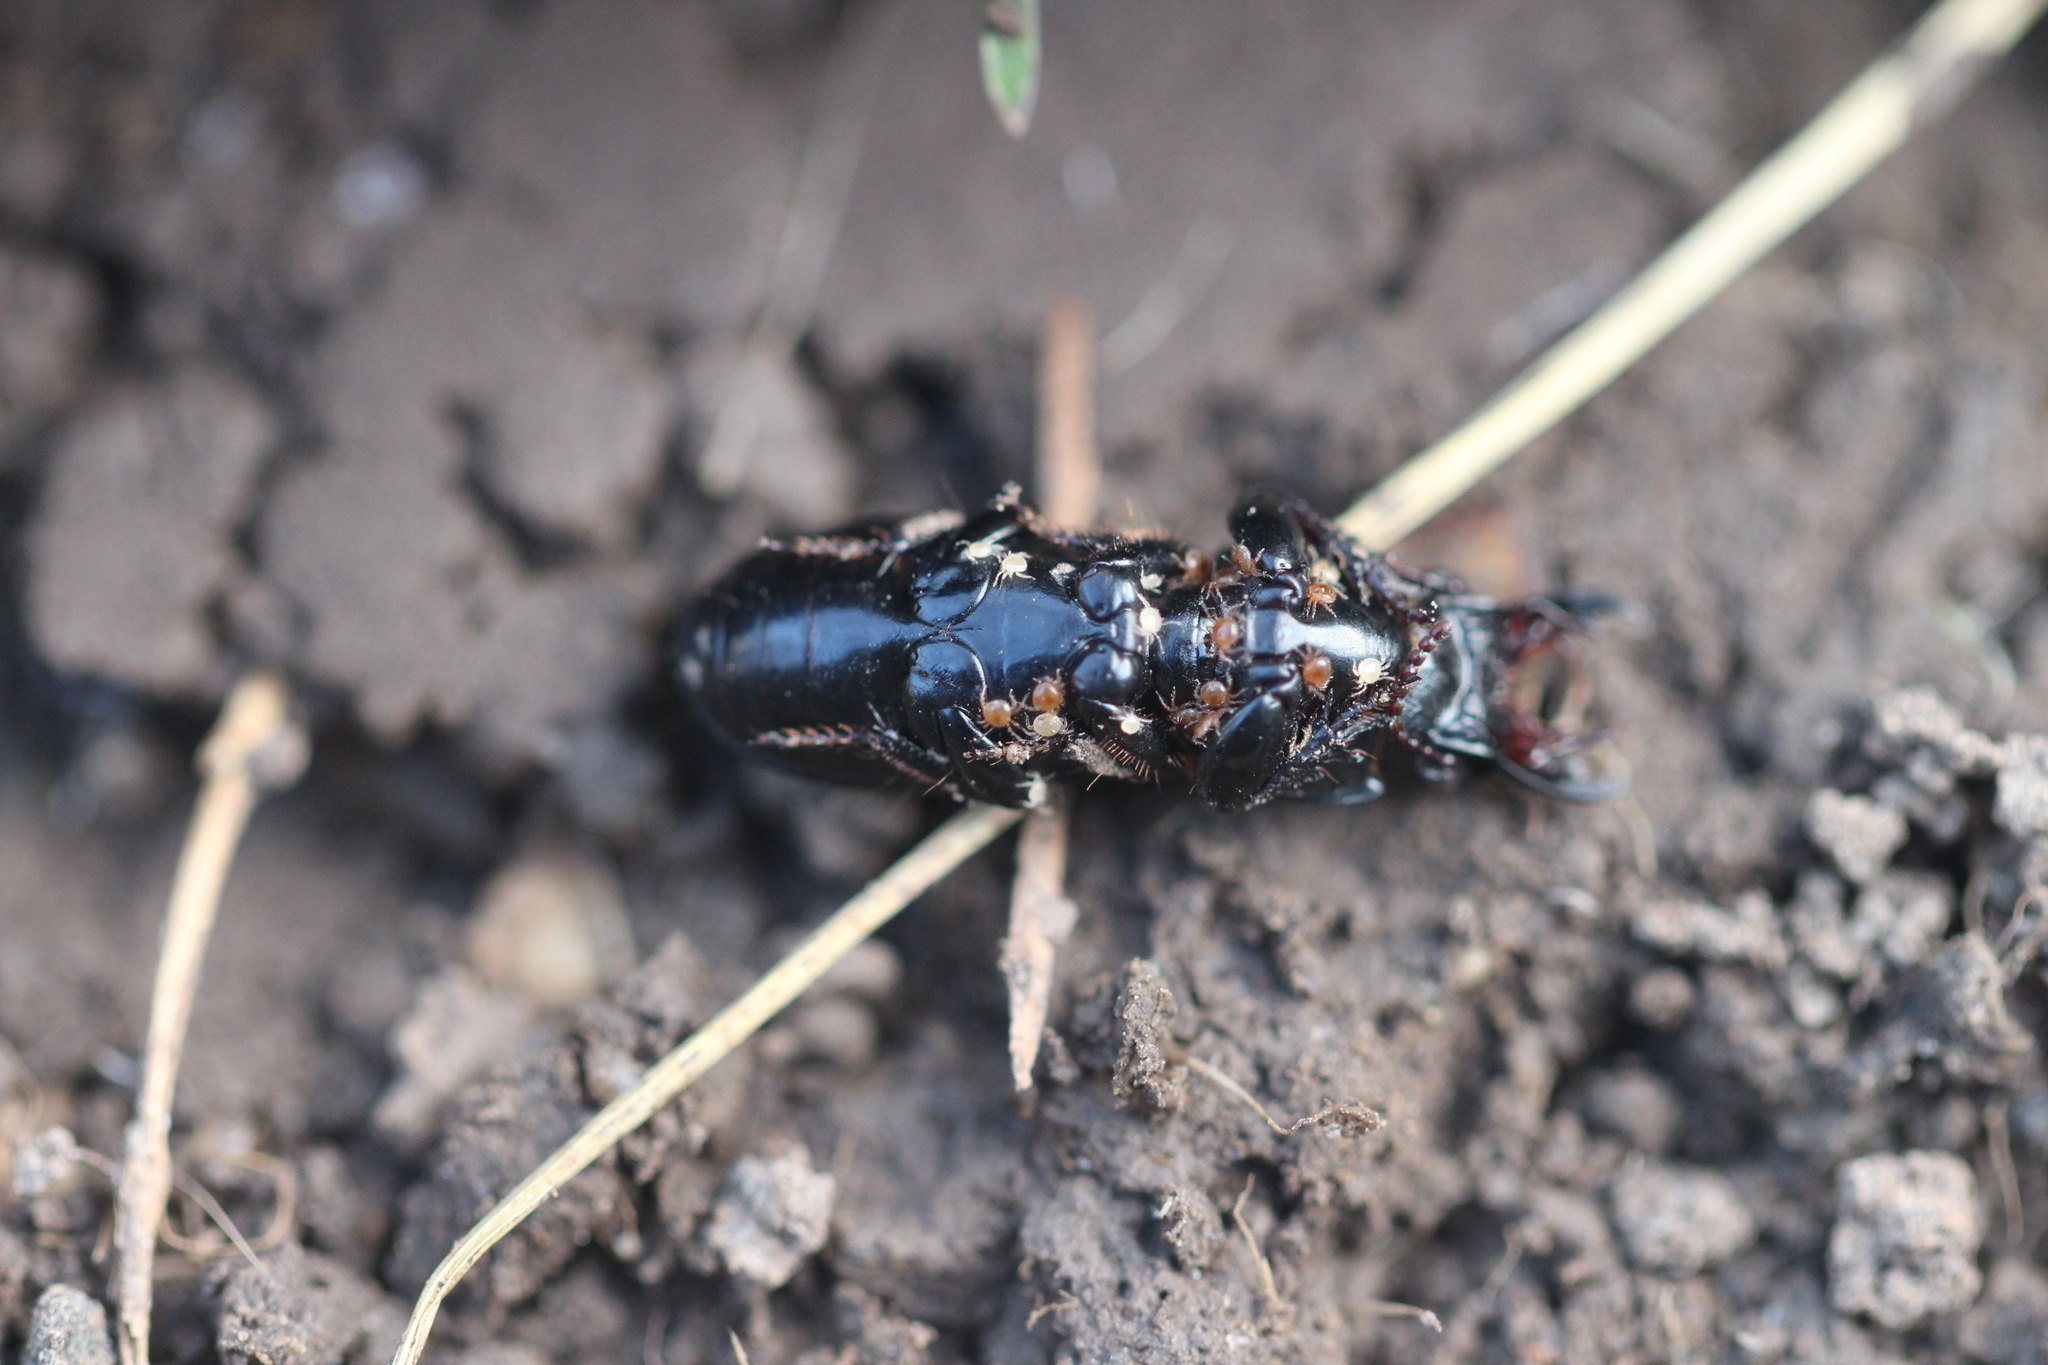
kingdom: Animalia
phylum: Arthropoda
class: Insecta
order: Coleoptera
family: Carabidae
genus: Scarites
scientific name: Scarites subterraneus
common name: Big-headed ground beetle
